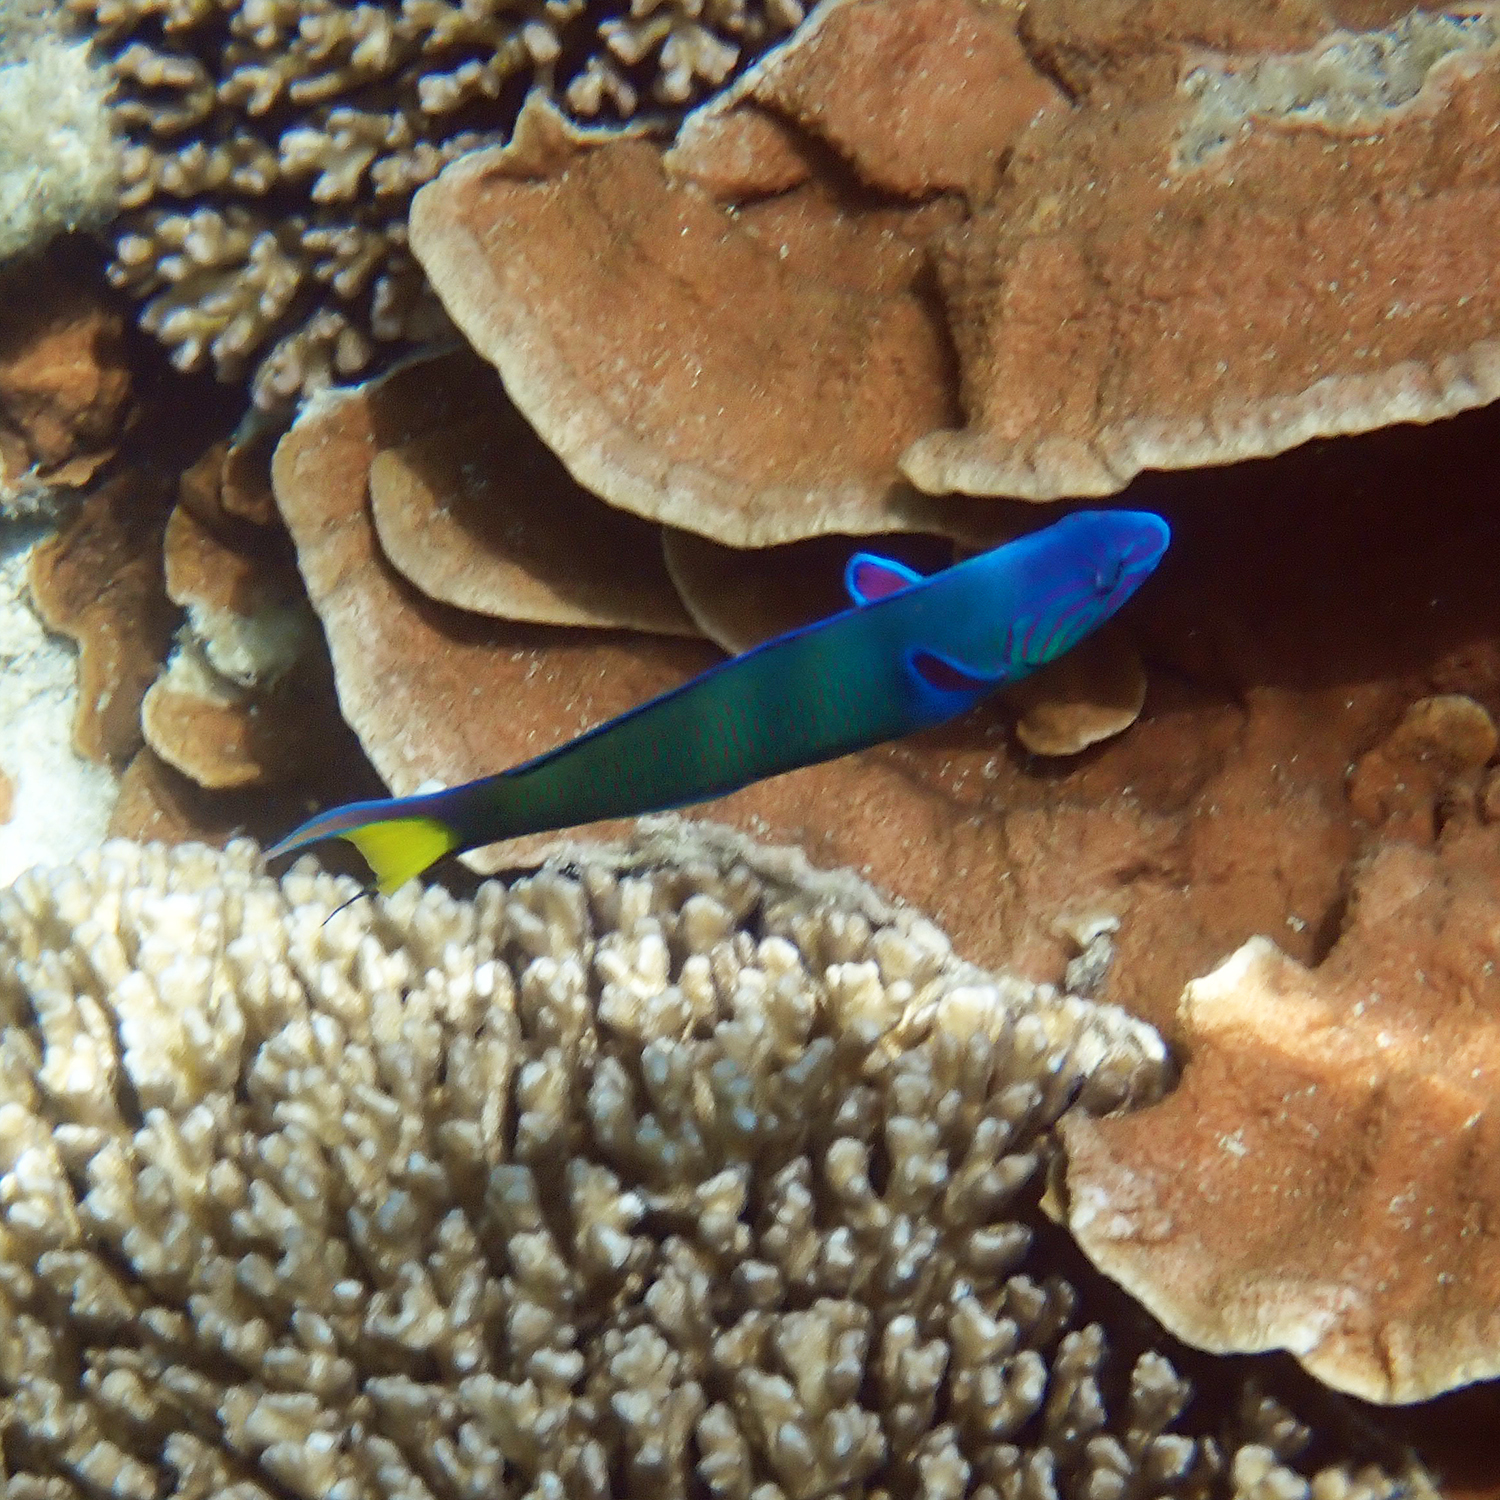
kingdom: Animalia
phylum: Chordata
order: Perciformes
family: Labridae
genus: Thalassoma
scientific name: Thalassoma lunare
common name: Blue wrasse
